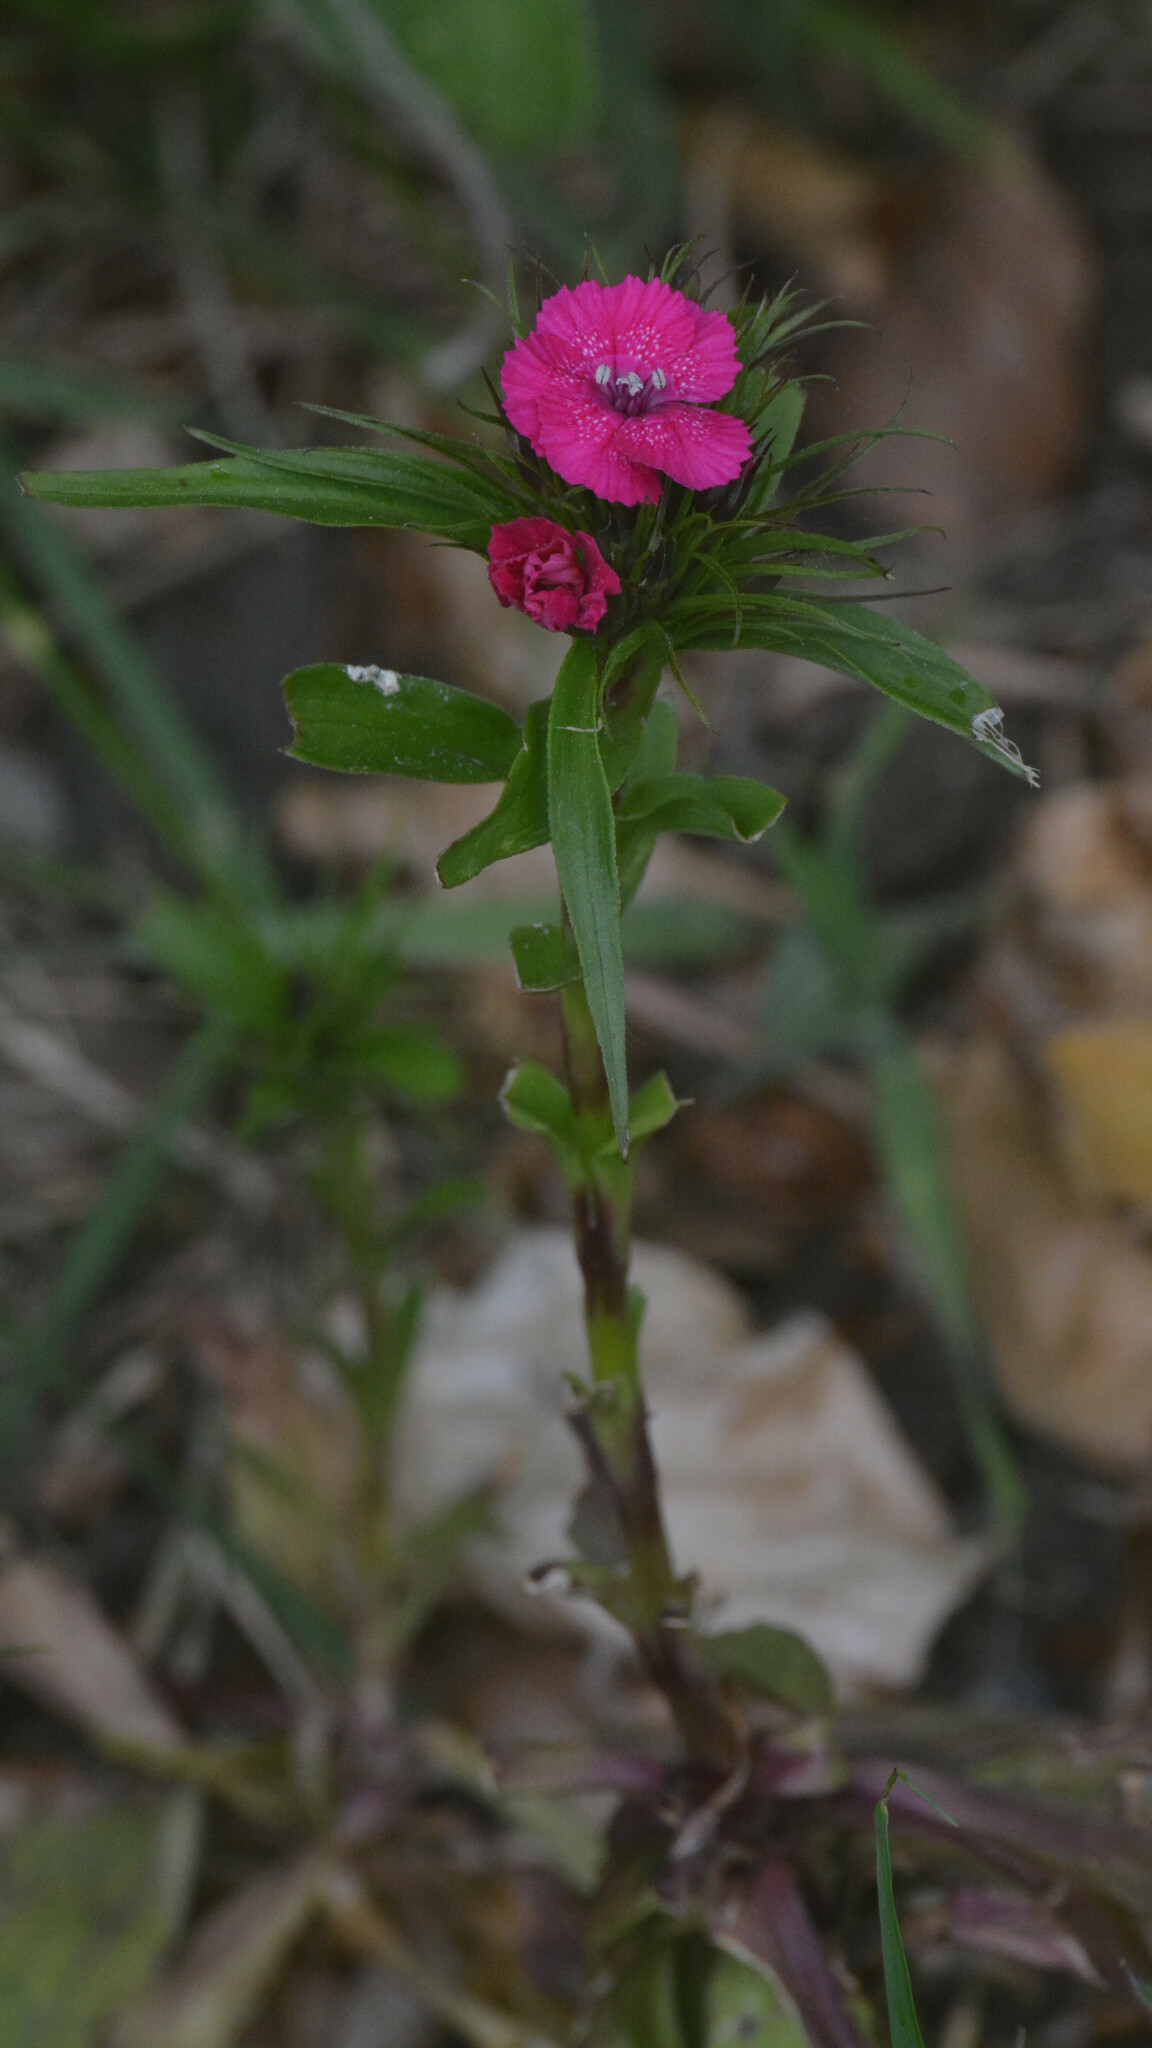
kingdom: Plantae
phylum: Tracheophyta
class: Magnoliopsida
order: Caryophyllales
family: Caryophyllaceae
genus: Dianthus
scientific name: Dianthus barbatus
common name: Sweet-william
